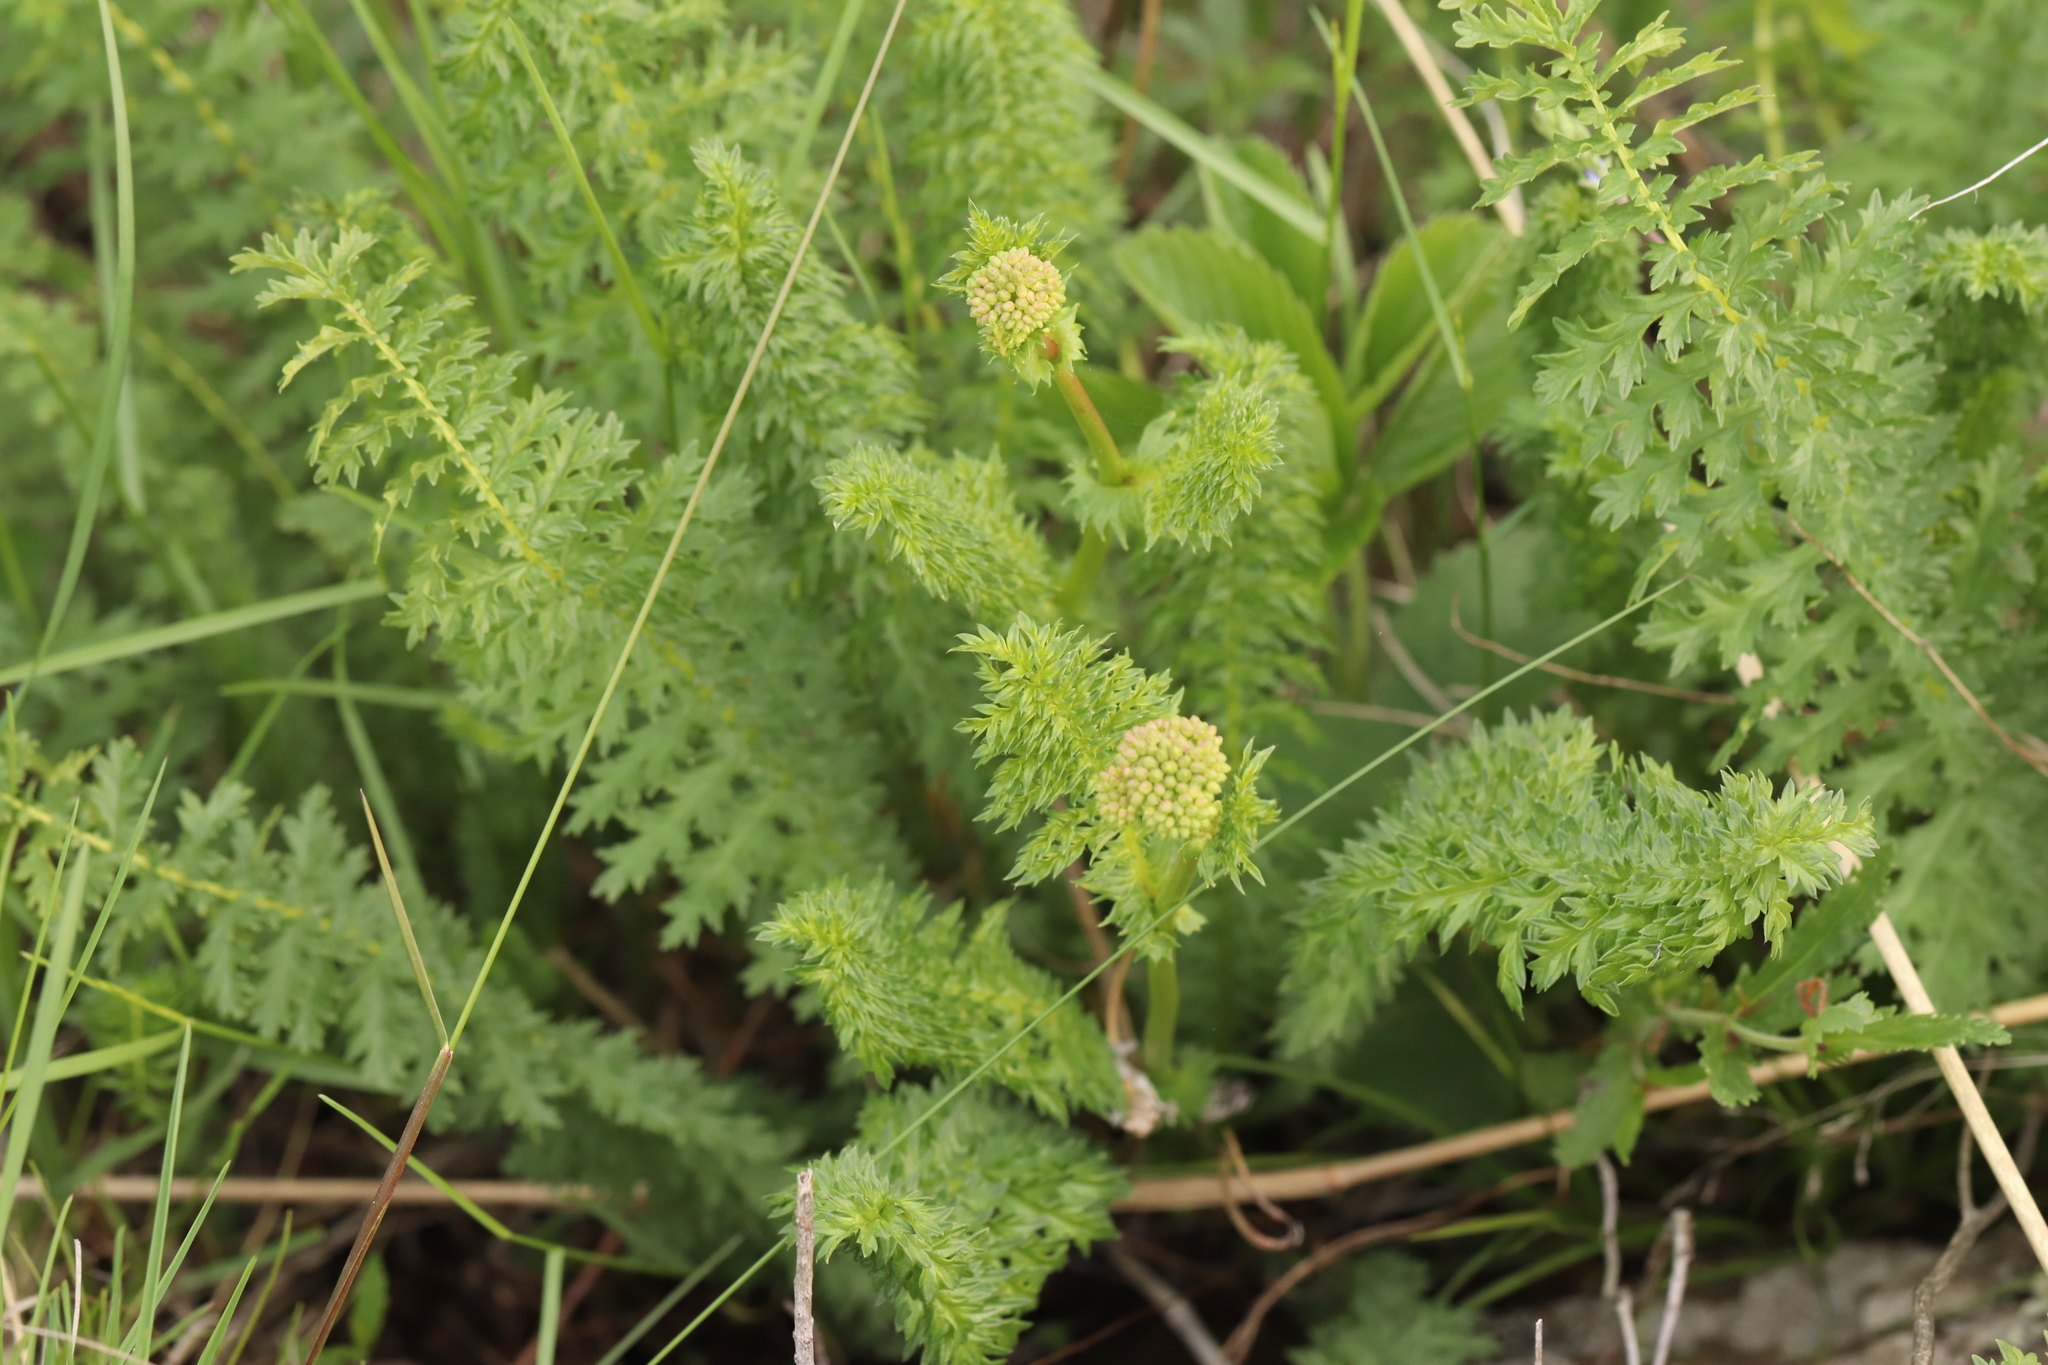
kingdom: Plantae
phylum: Tracheophyta
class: Magnoliopsida
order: Rosales
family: Rosaceae
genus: Filipendula
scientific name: Filipendula vulgaris
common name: Dropwort
